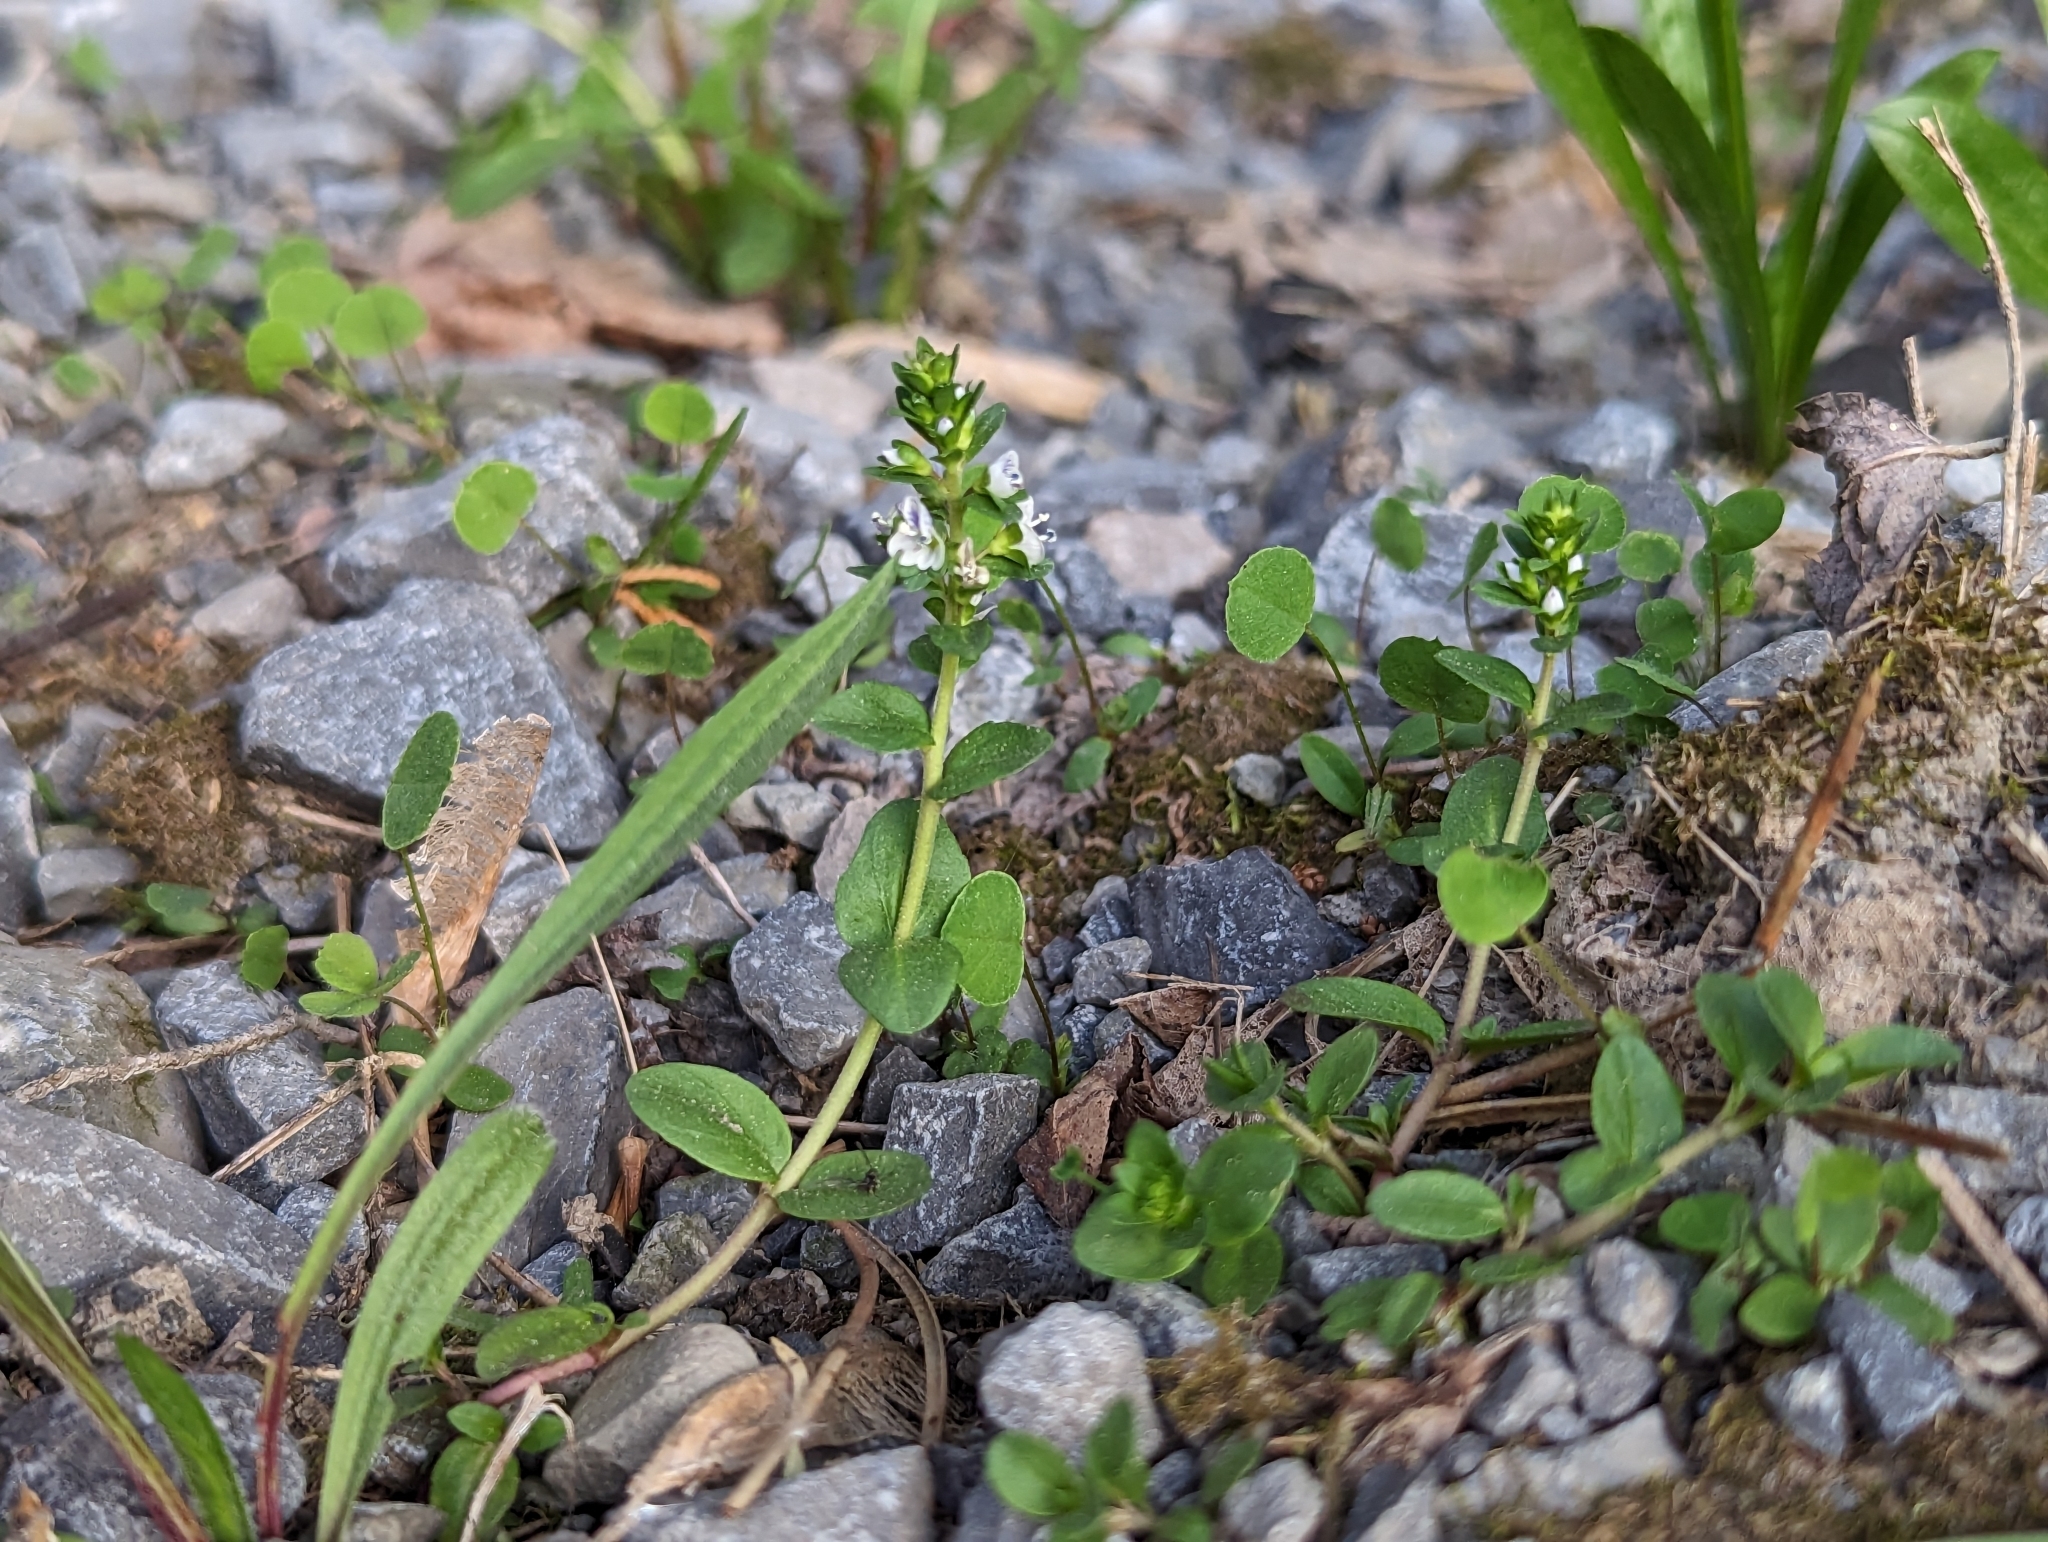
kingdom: Plantae
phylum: Tracheophyta
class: Magnoliopsida
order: Lamiales
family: Plantaginaceae
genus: Veronica
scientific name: Veronica serpyllifolia
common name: Thyme-leaved speedwell
